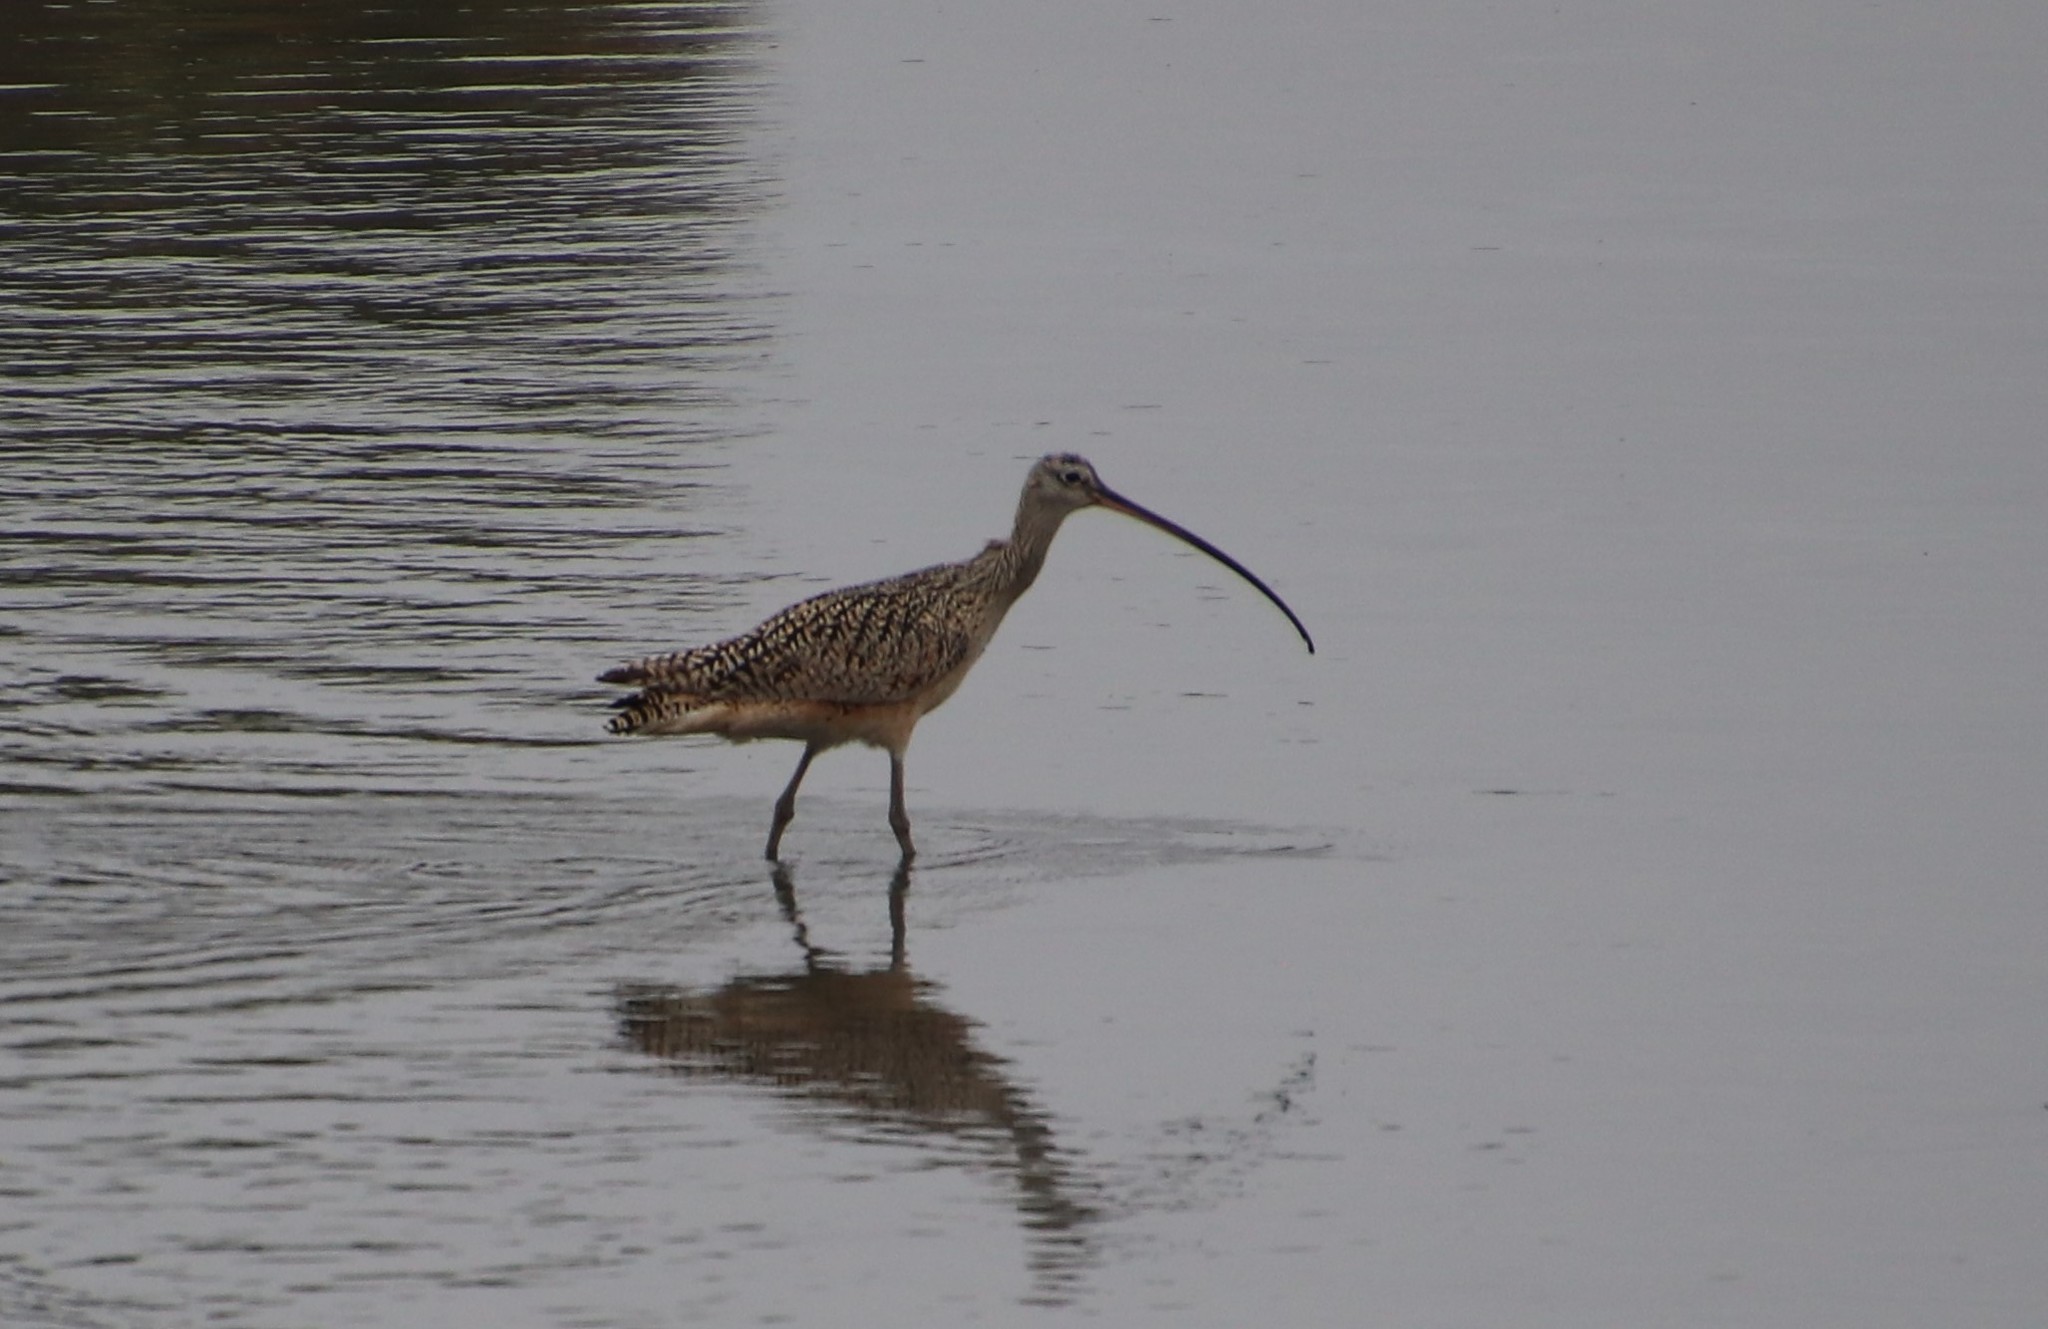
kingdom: Animalia
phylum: Chordata
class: Aves
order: Charadriiformes
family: Scolopacidae
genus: Numenius
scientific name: Numenius americanus
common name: Long-billed curlew
